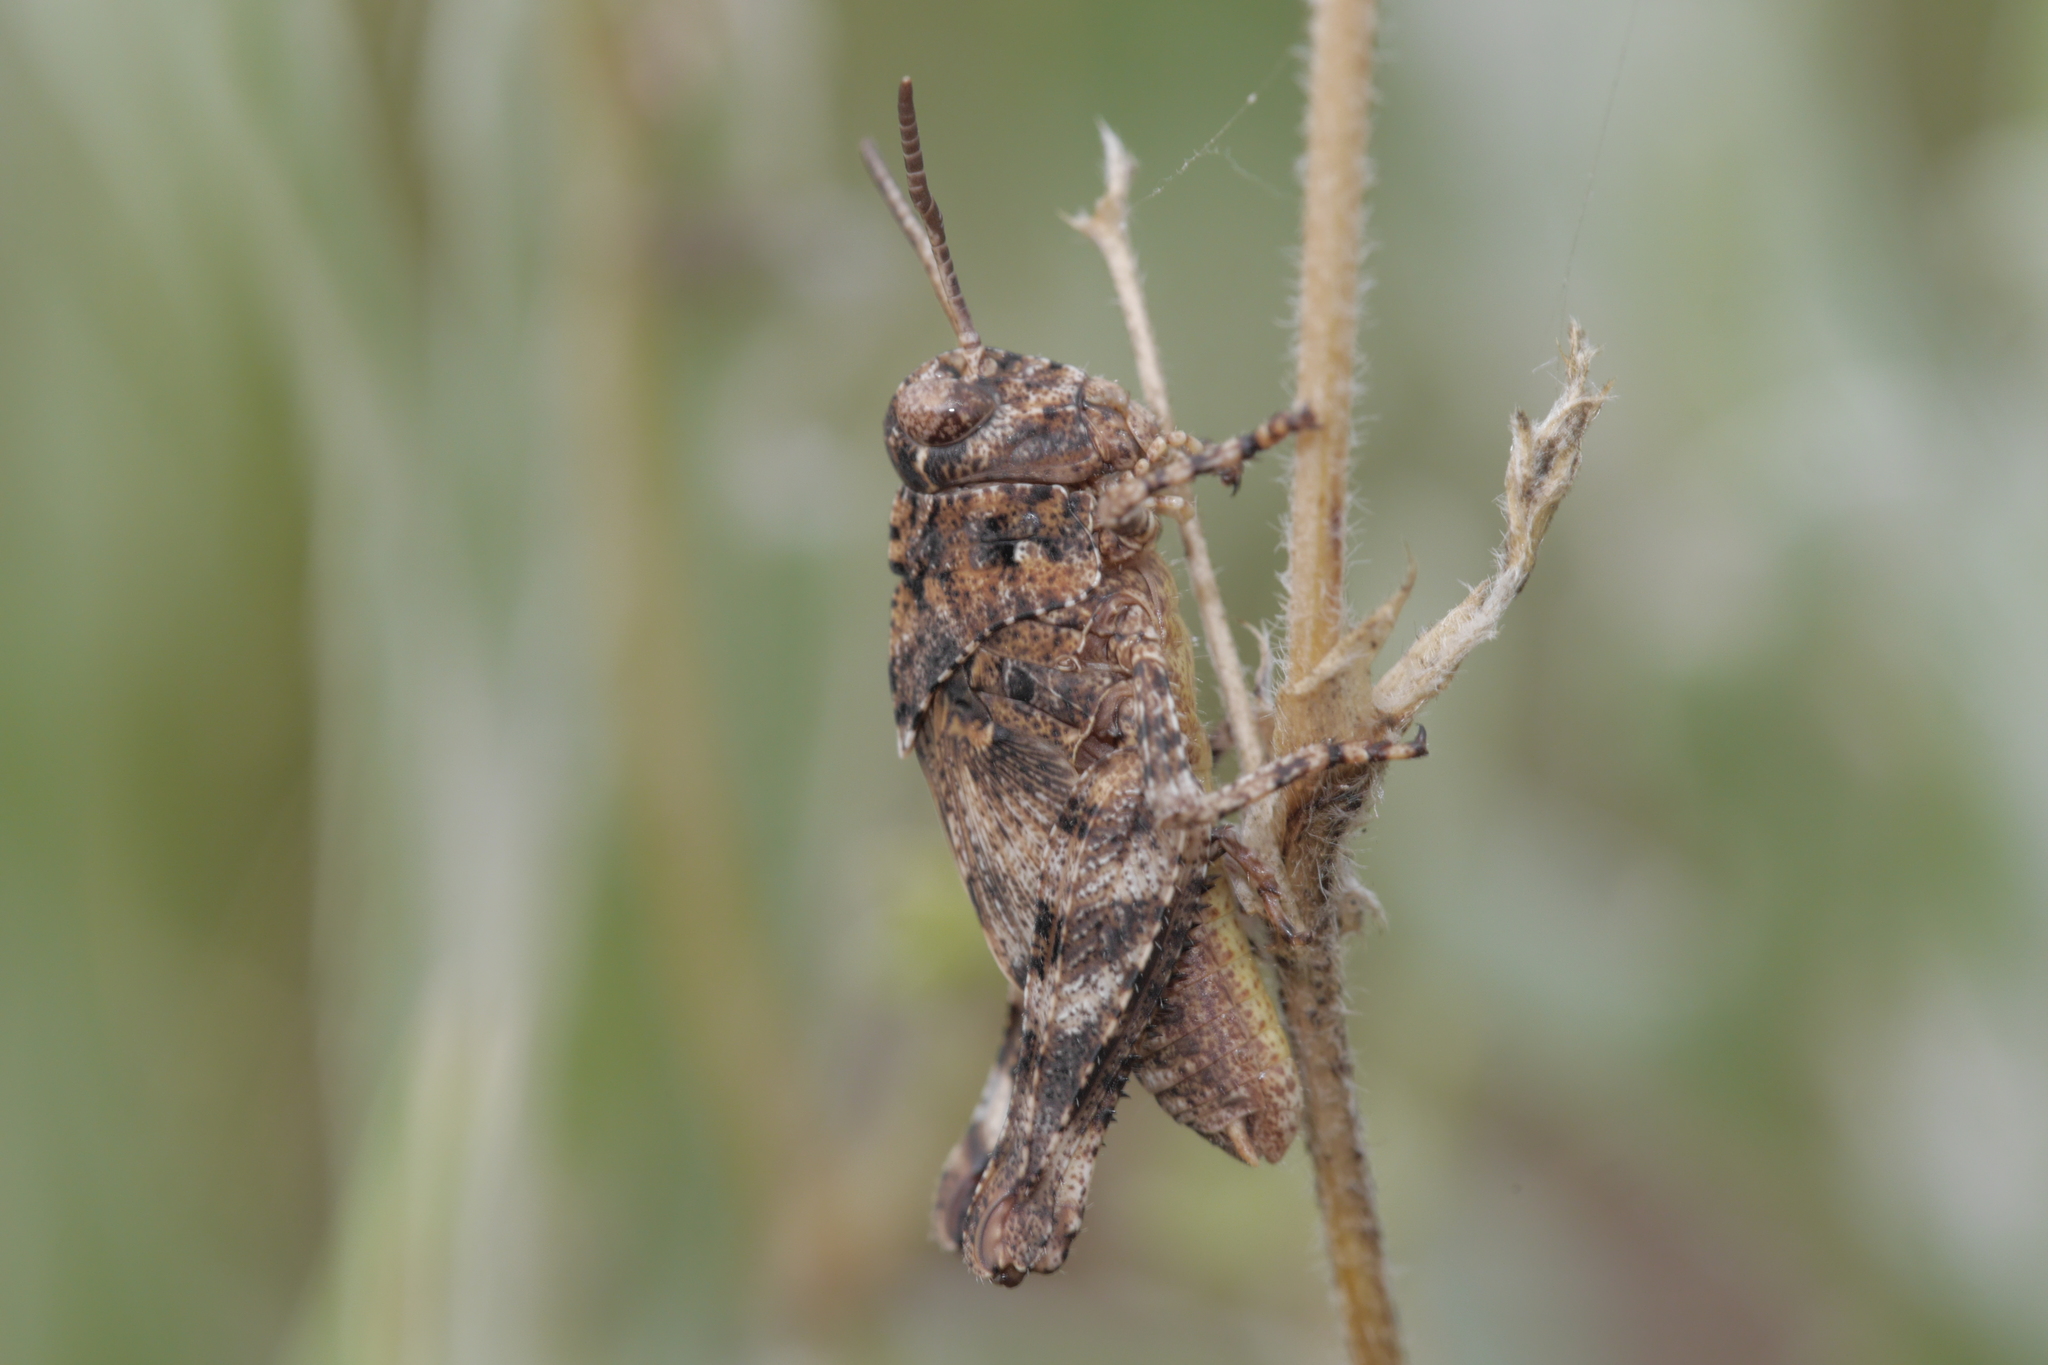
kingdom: Animalia
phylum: Arthropoda
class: Insecta
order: Orthoptera
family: Acrididae
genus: Oedipoda
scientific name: Oedipoda caerulescens
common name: Blue-winged grasshopper
